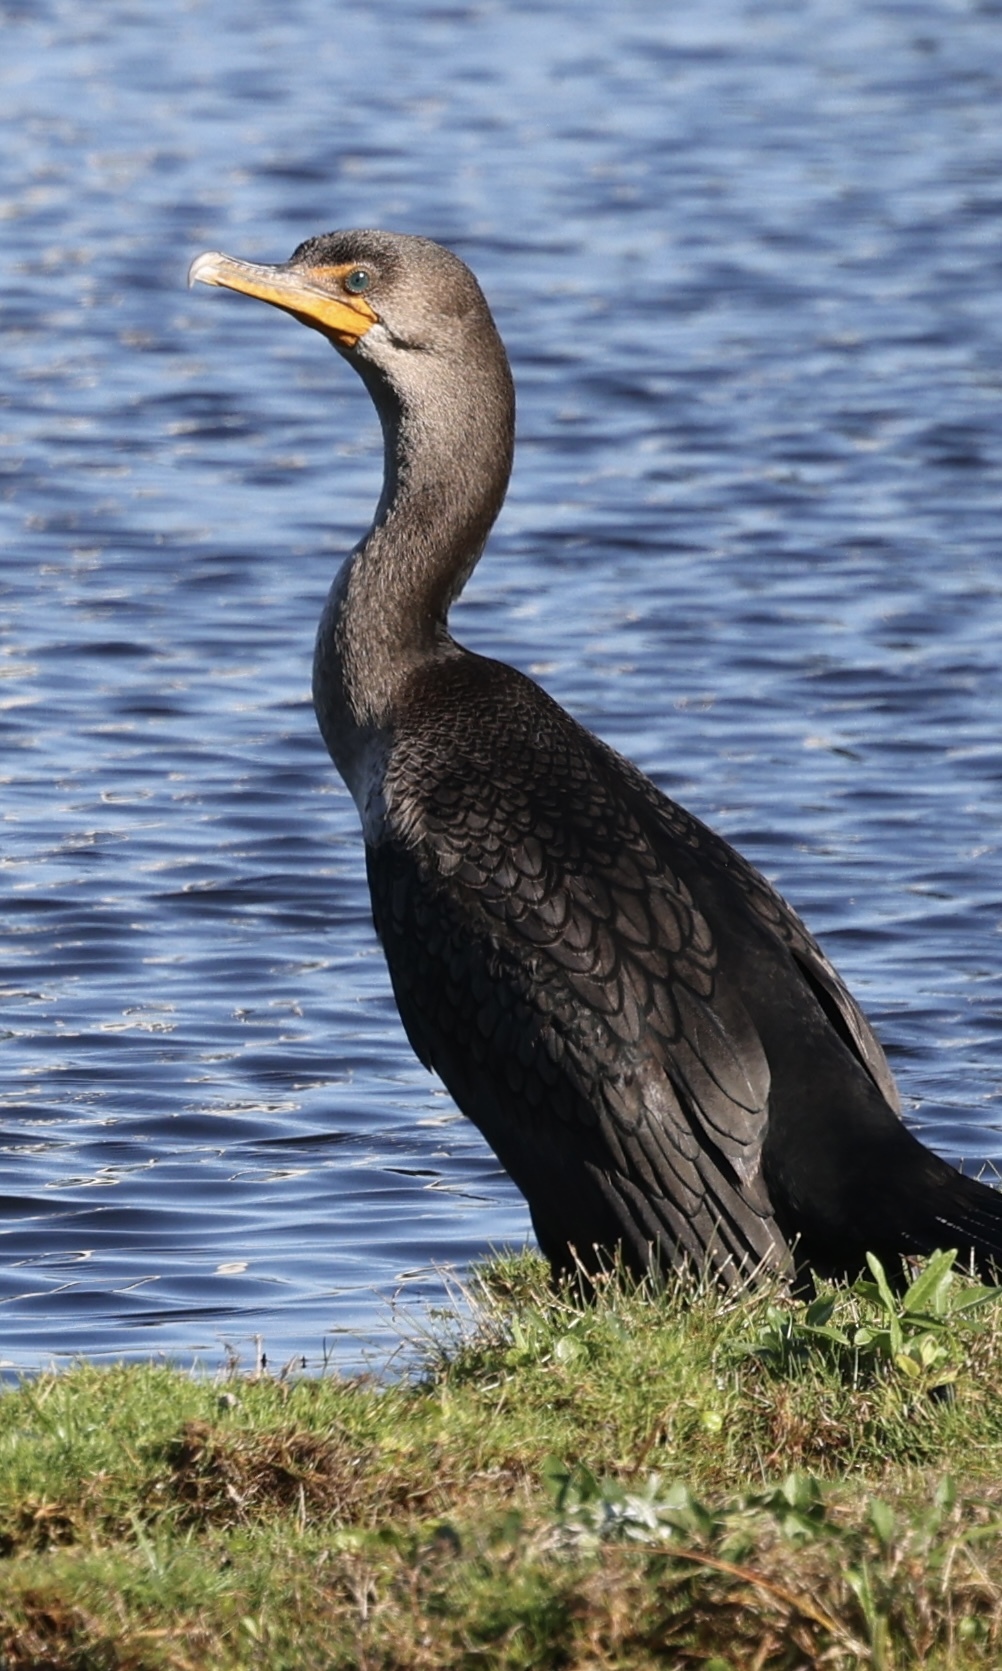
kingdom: Animalia
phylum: Chordata
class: Aves
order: Suliformes
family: Phalacrocoracidae
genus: Phalacrocorax
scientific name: Phalacrocorax auritus
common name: Double-crested cormorant
